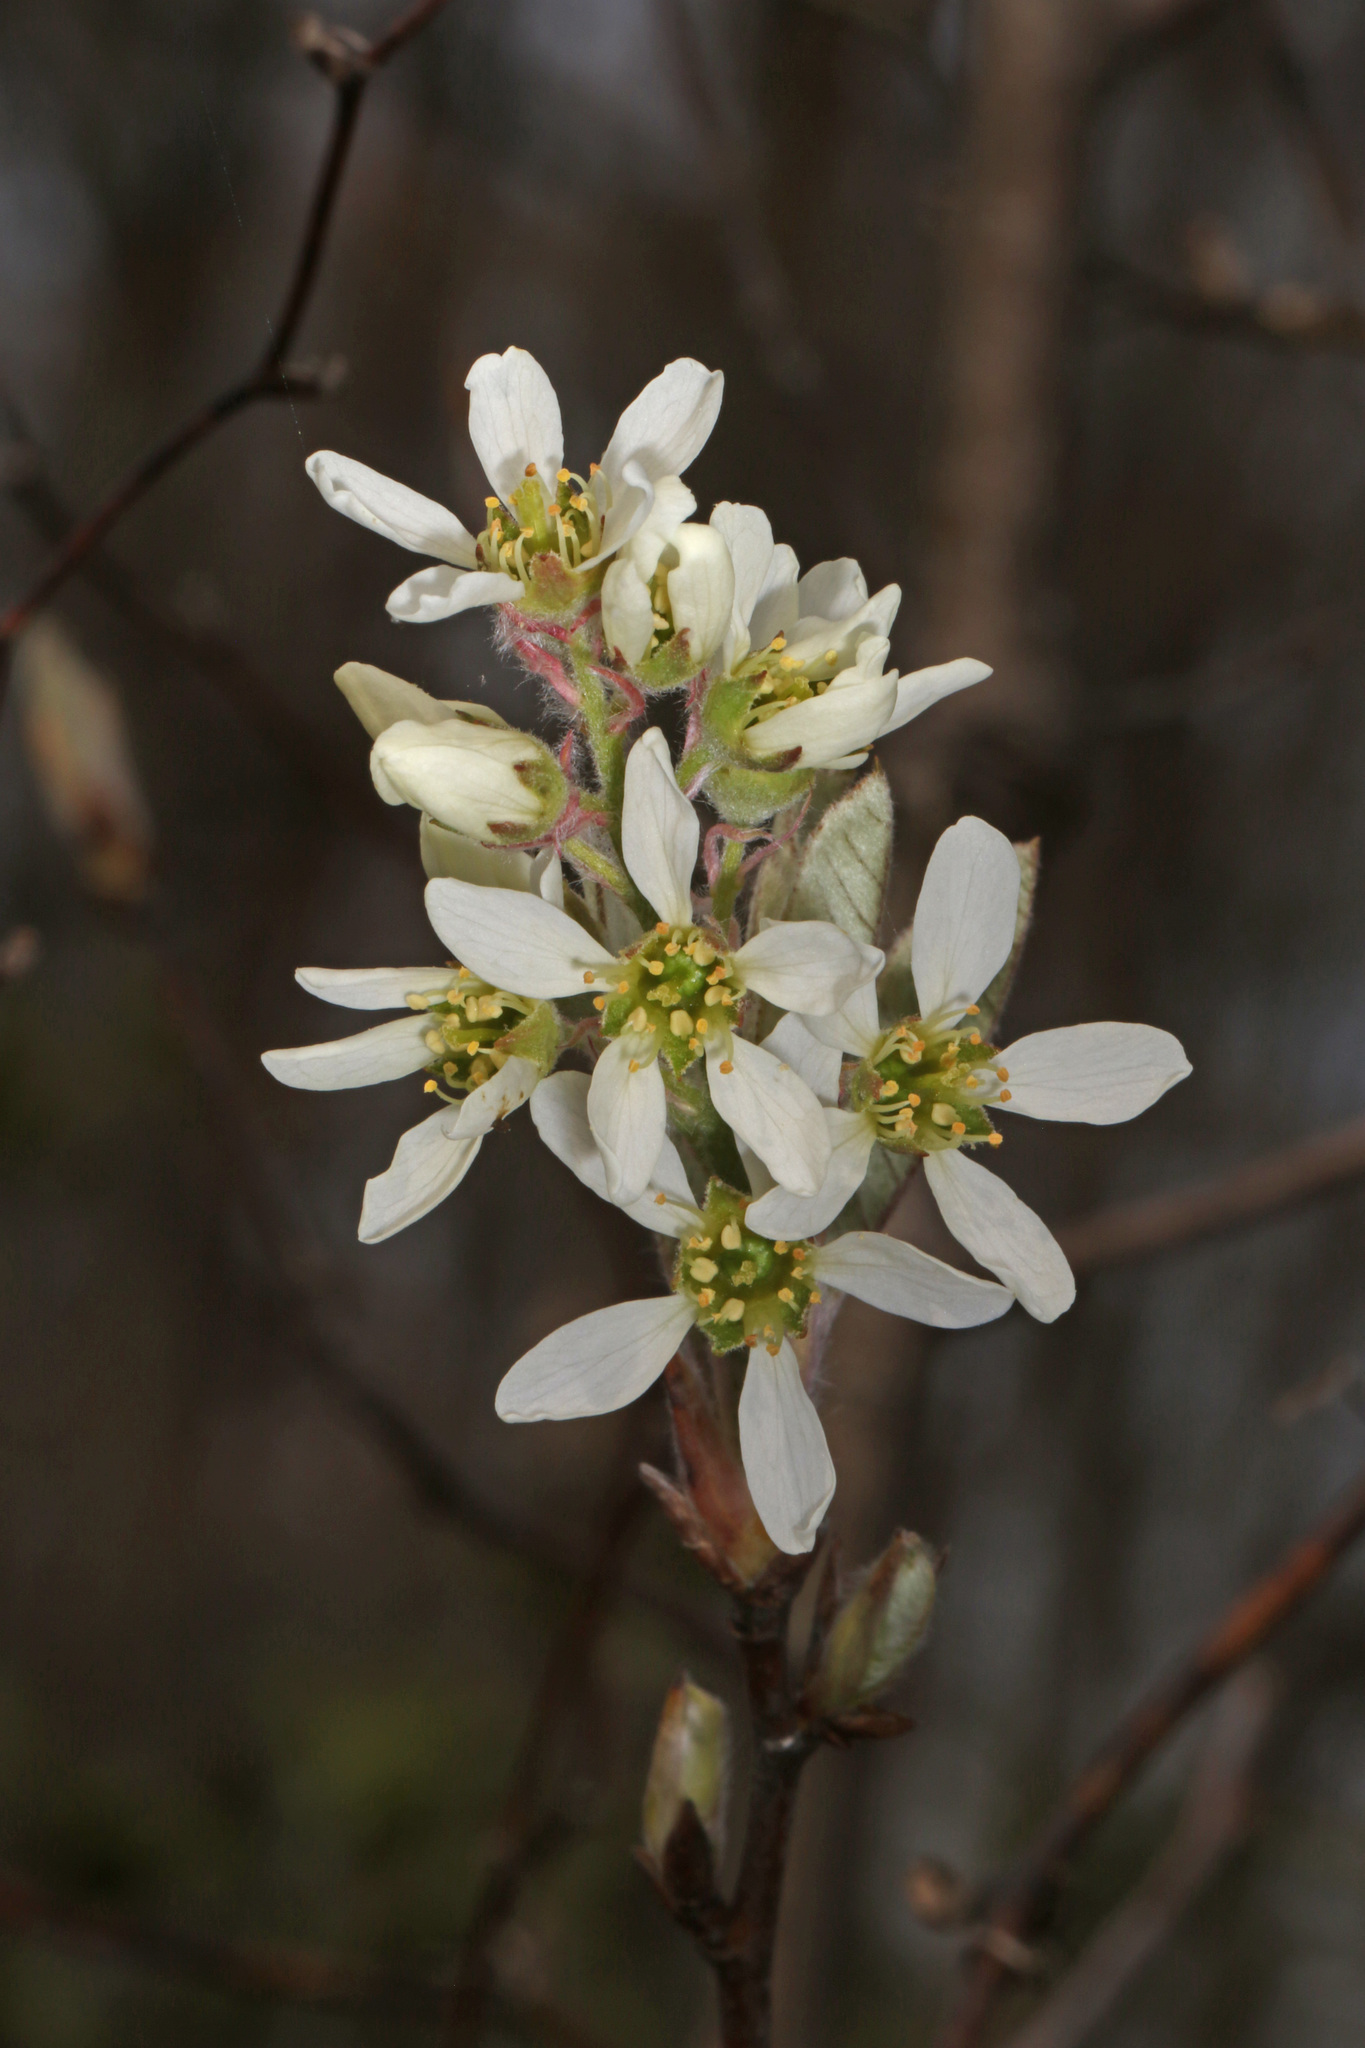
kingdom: Plantae
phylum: Tracheophyta
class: Magnoliopsida
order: Rosales
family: Rosaceae
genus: Amelanchier
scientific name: Amelanchier canadensis
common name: Thicket serviceberry
